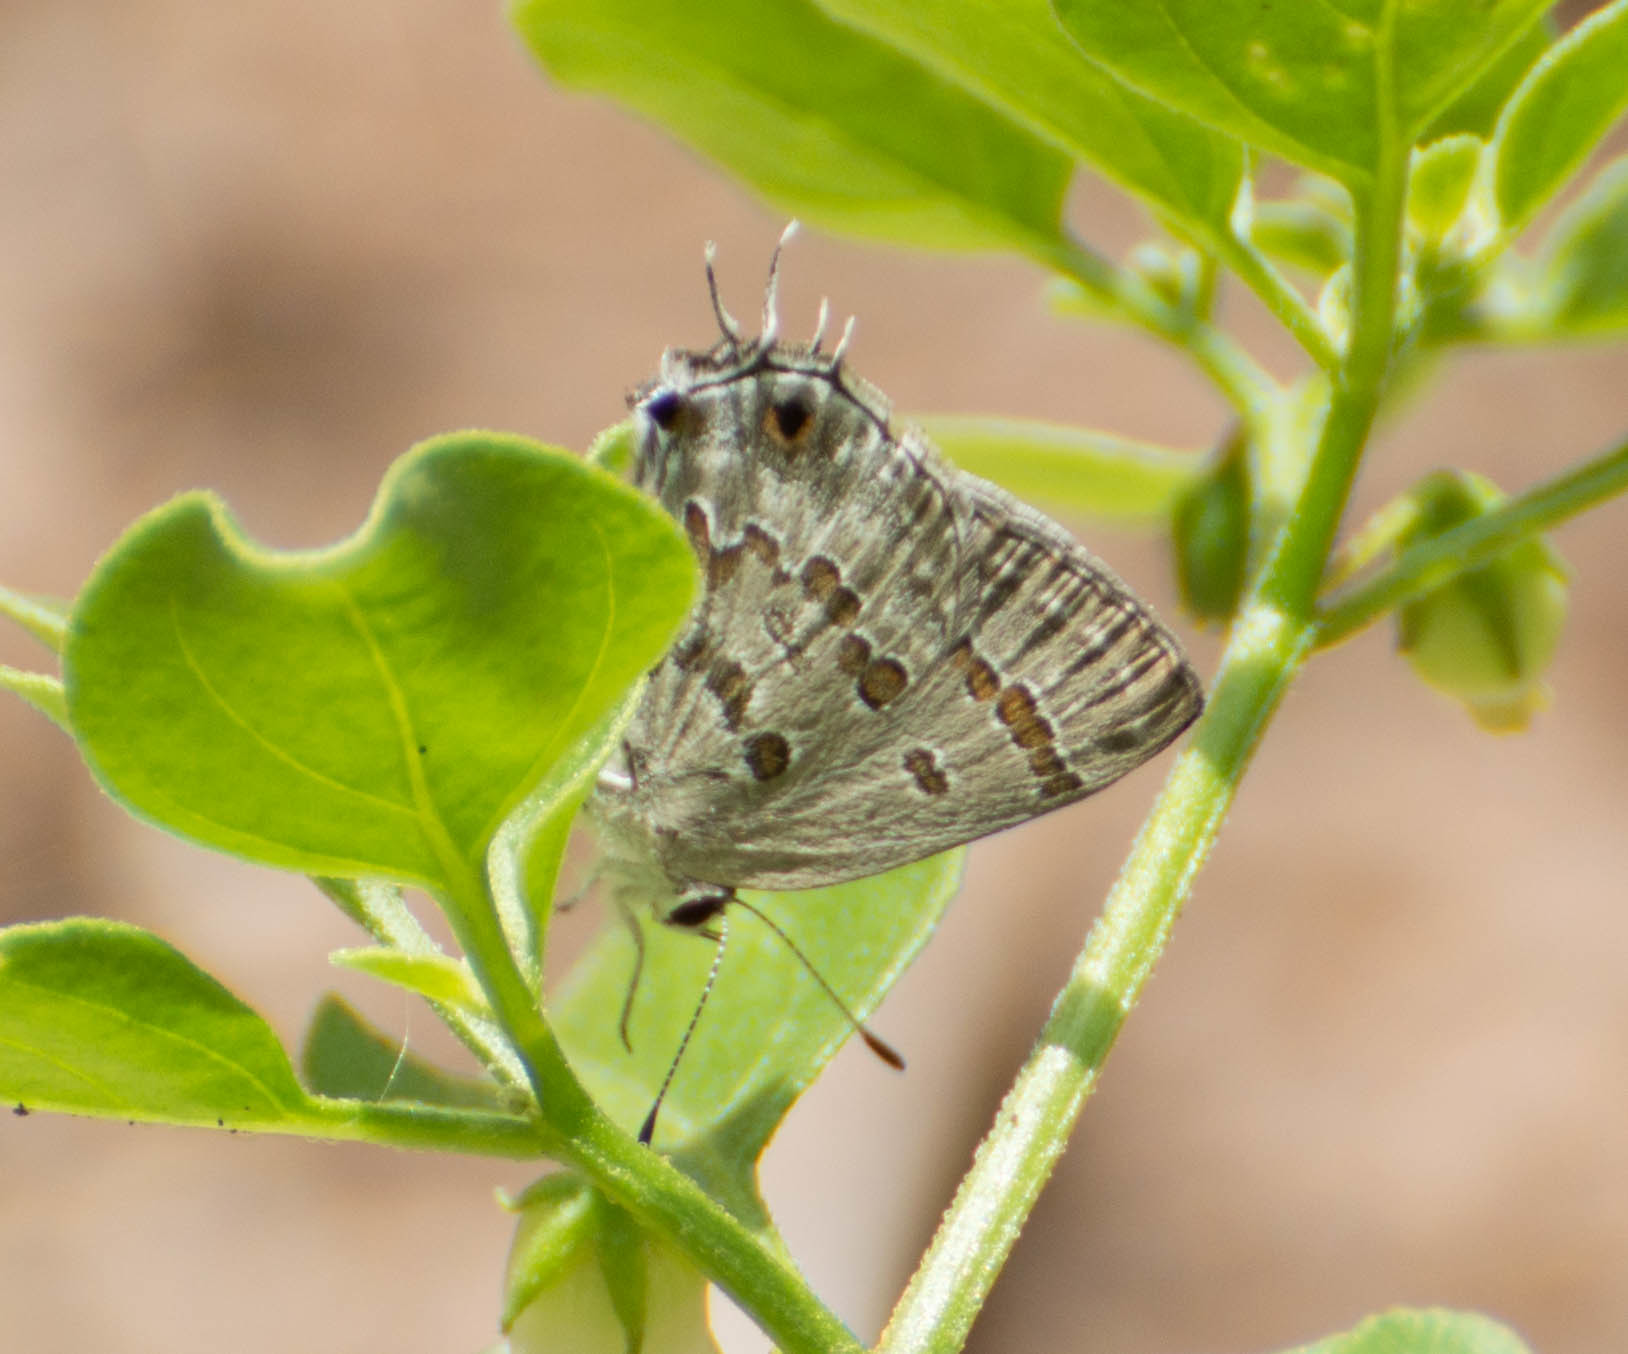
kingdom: Animalia
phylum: Arthropoda
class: Insecta
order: Lepidoptera
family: Lycaenidae
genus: Strymon
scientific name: Strymon lucena
